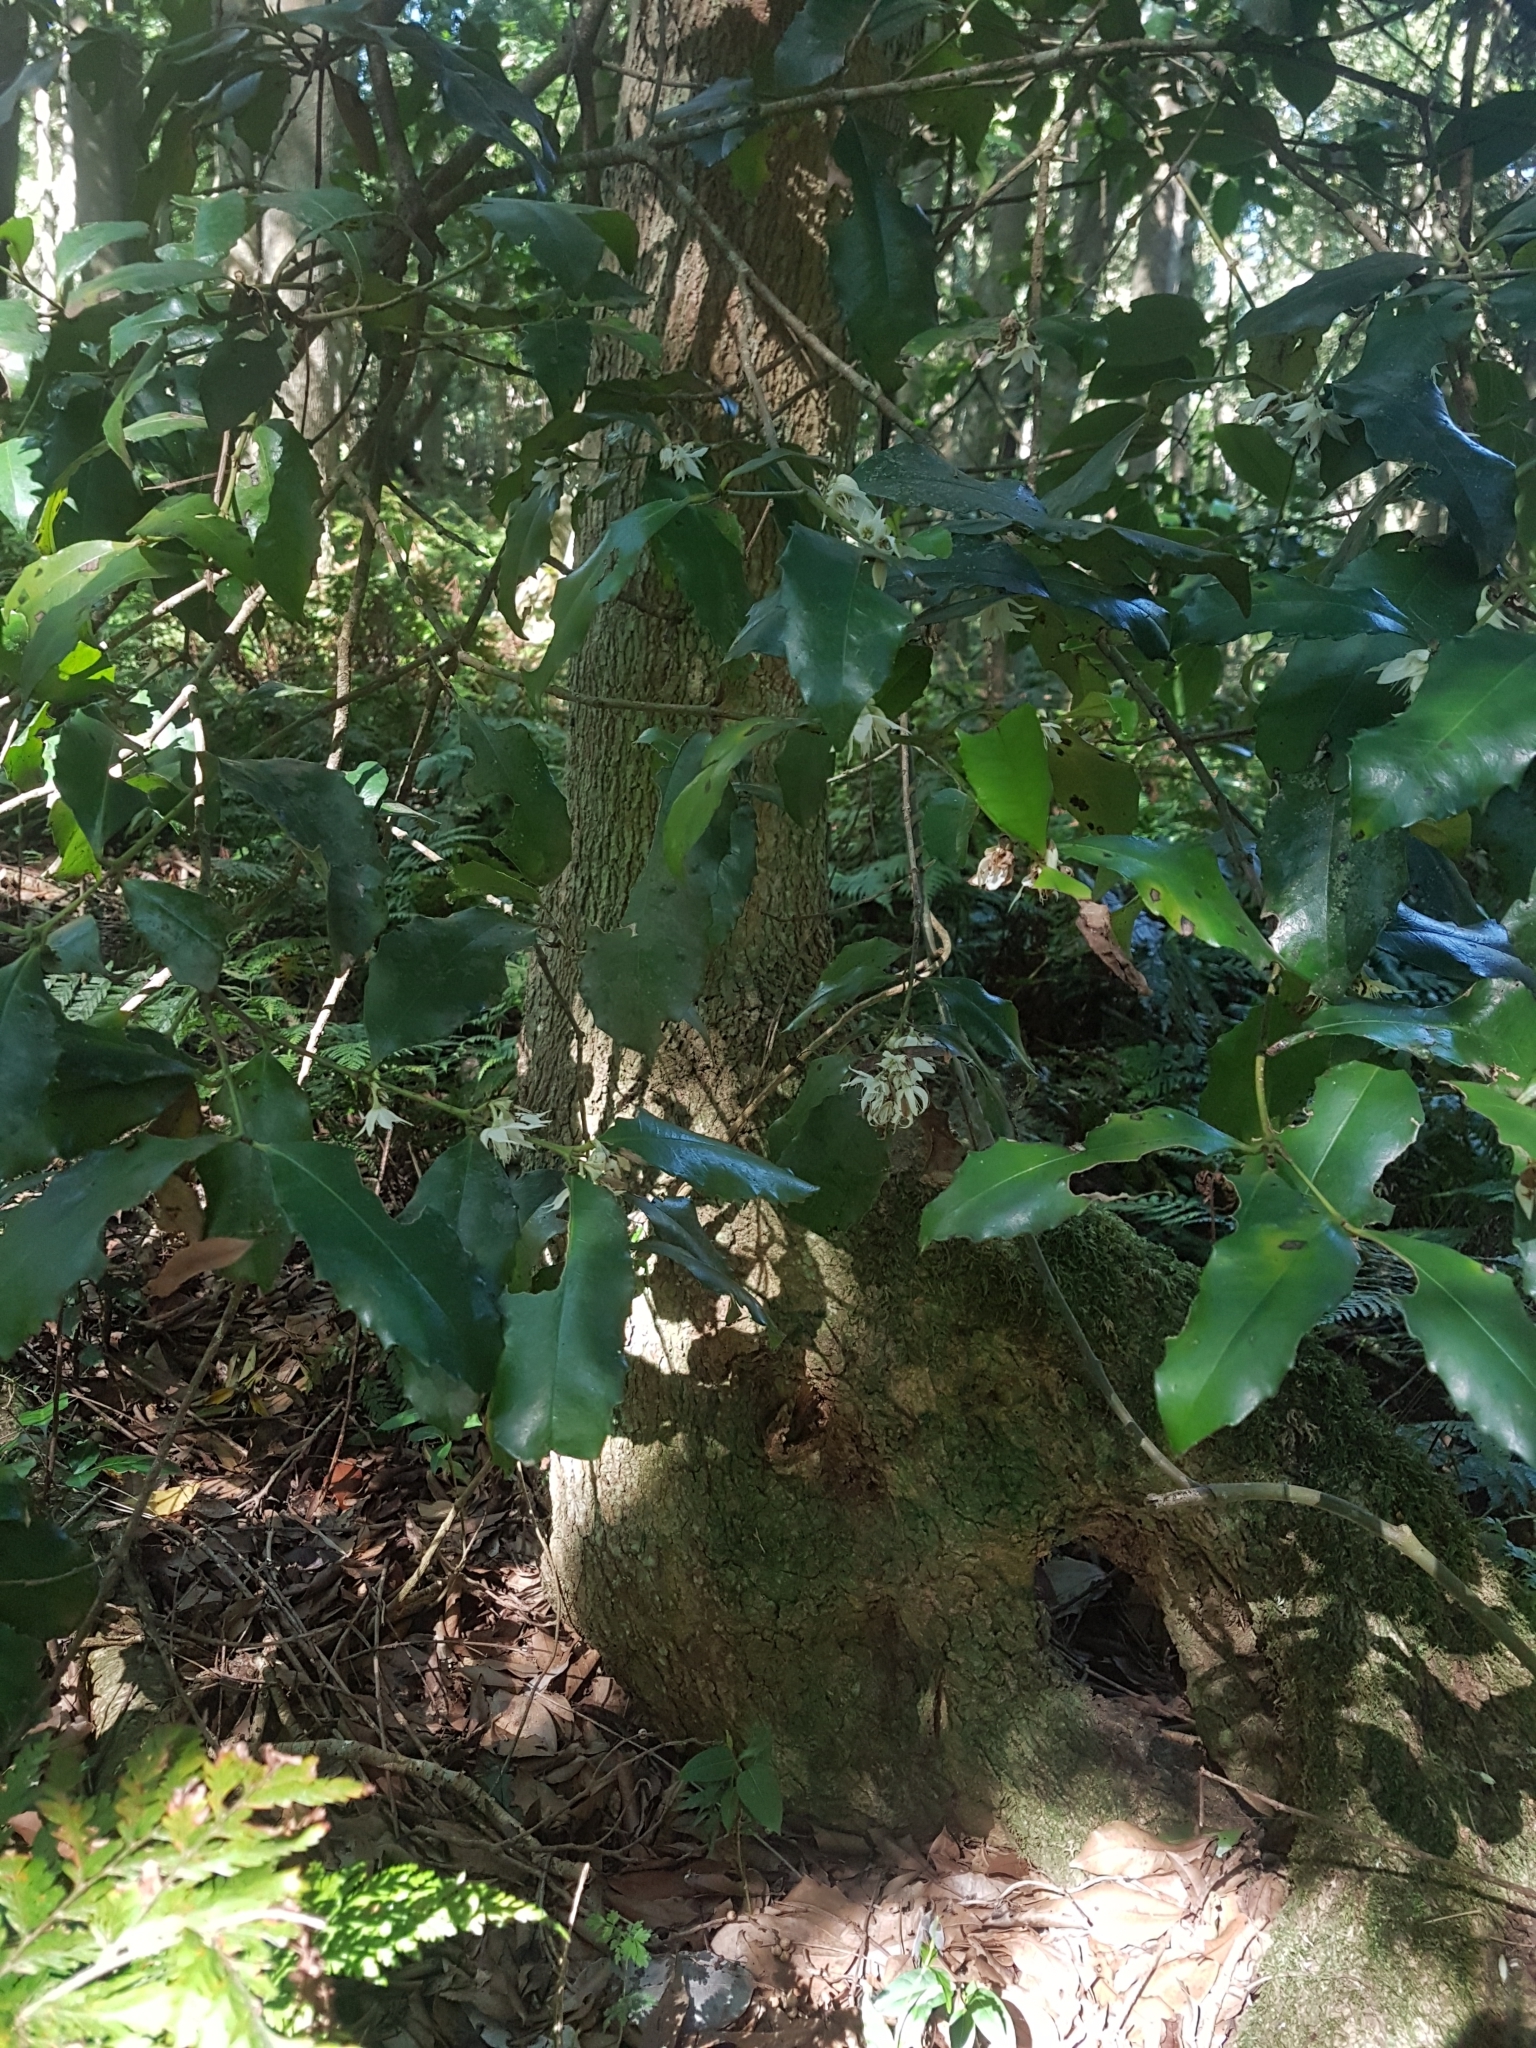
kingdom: Plantae
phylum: Tracheophyta
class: Magnoliopsida
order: Laurales
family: Atherospermataceae
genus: Doryphora
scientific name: Doryphora sassafras
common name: Golden-sassafras
